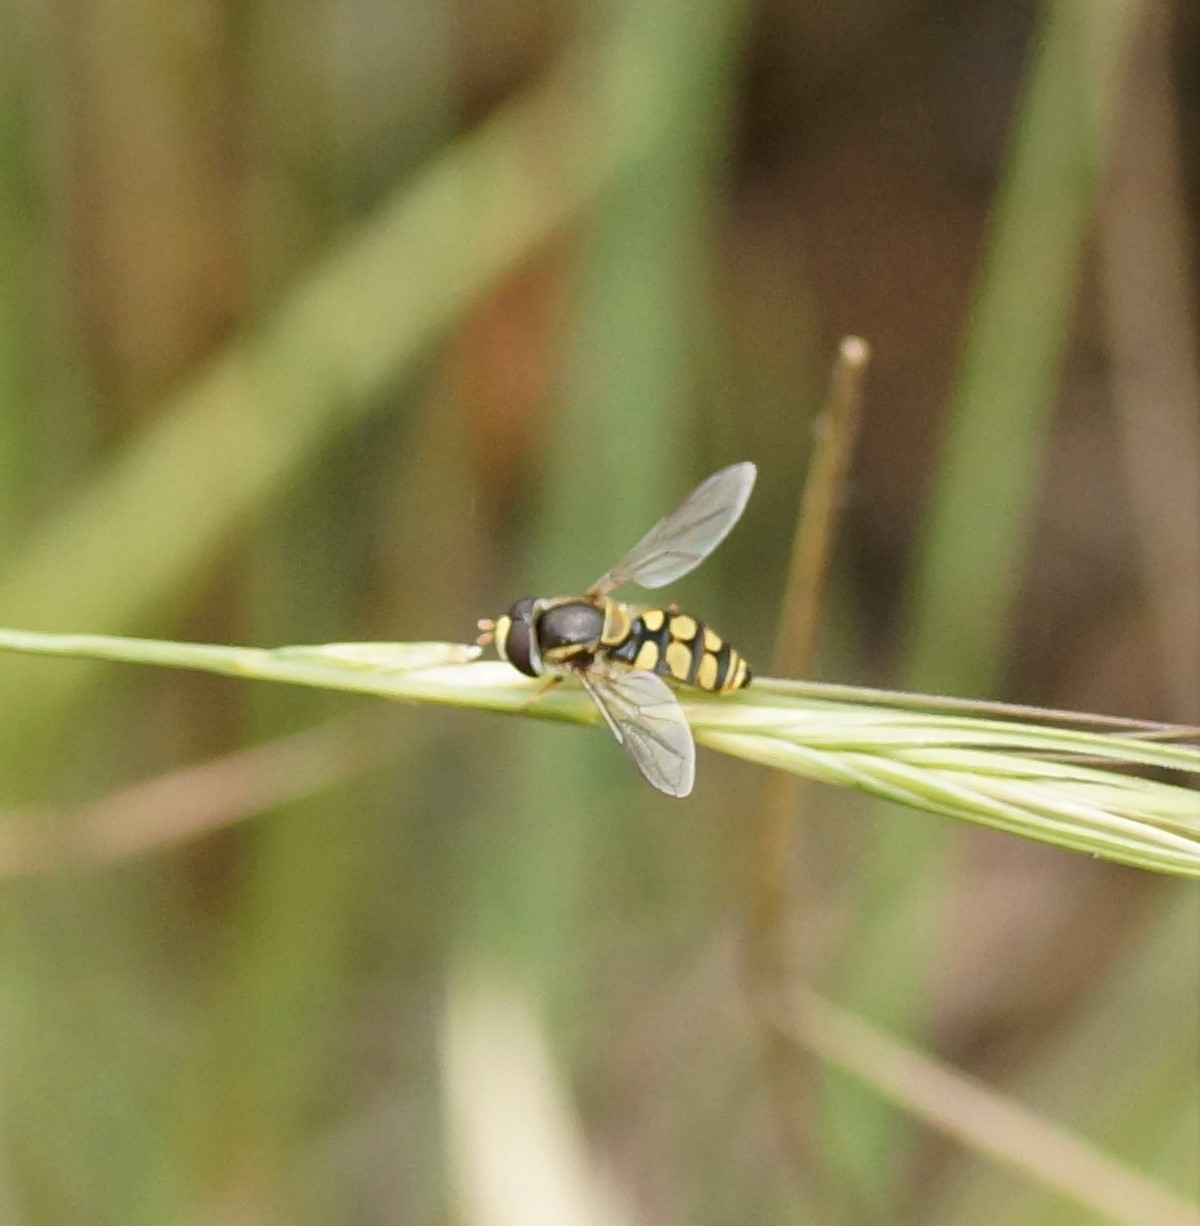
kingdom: Animalia
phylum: Arthropoda
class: Insecta
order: Diptera
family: Syrphidae
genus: Simosyrphus
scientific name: Simosyrphus grandicornis
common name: Hoverfly
